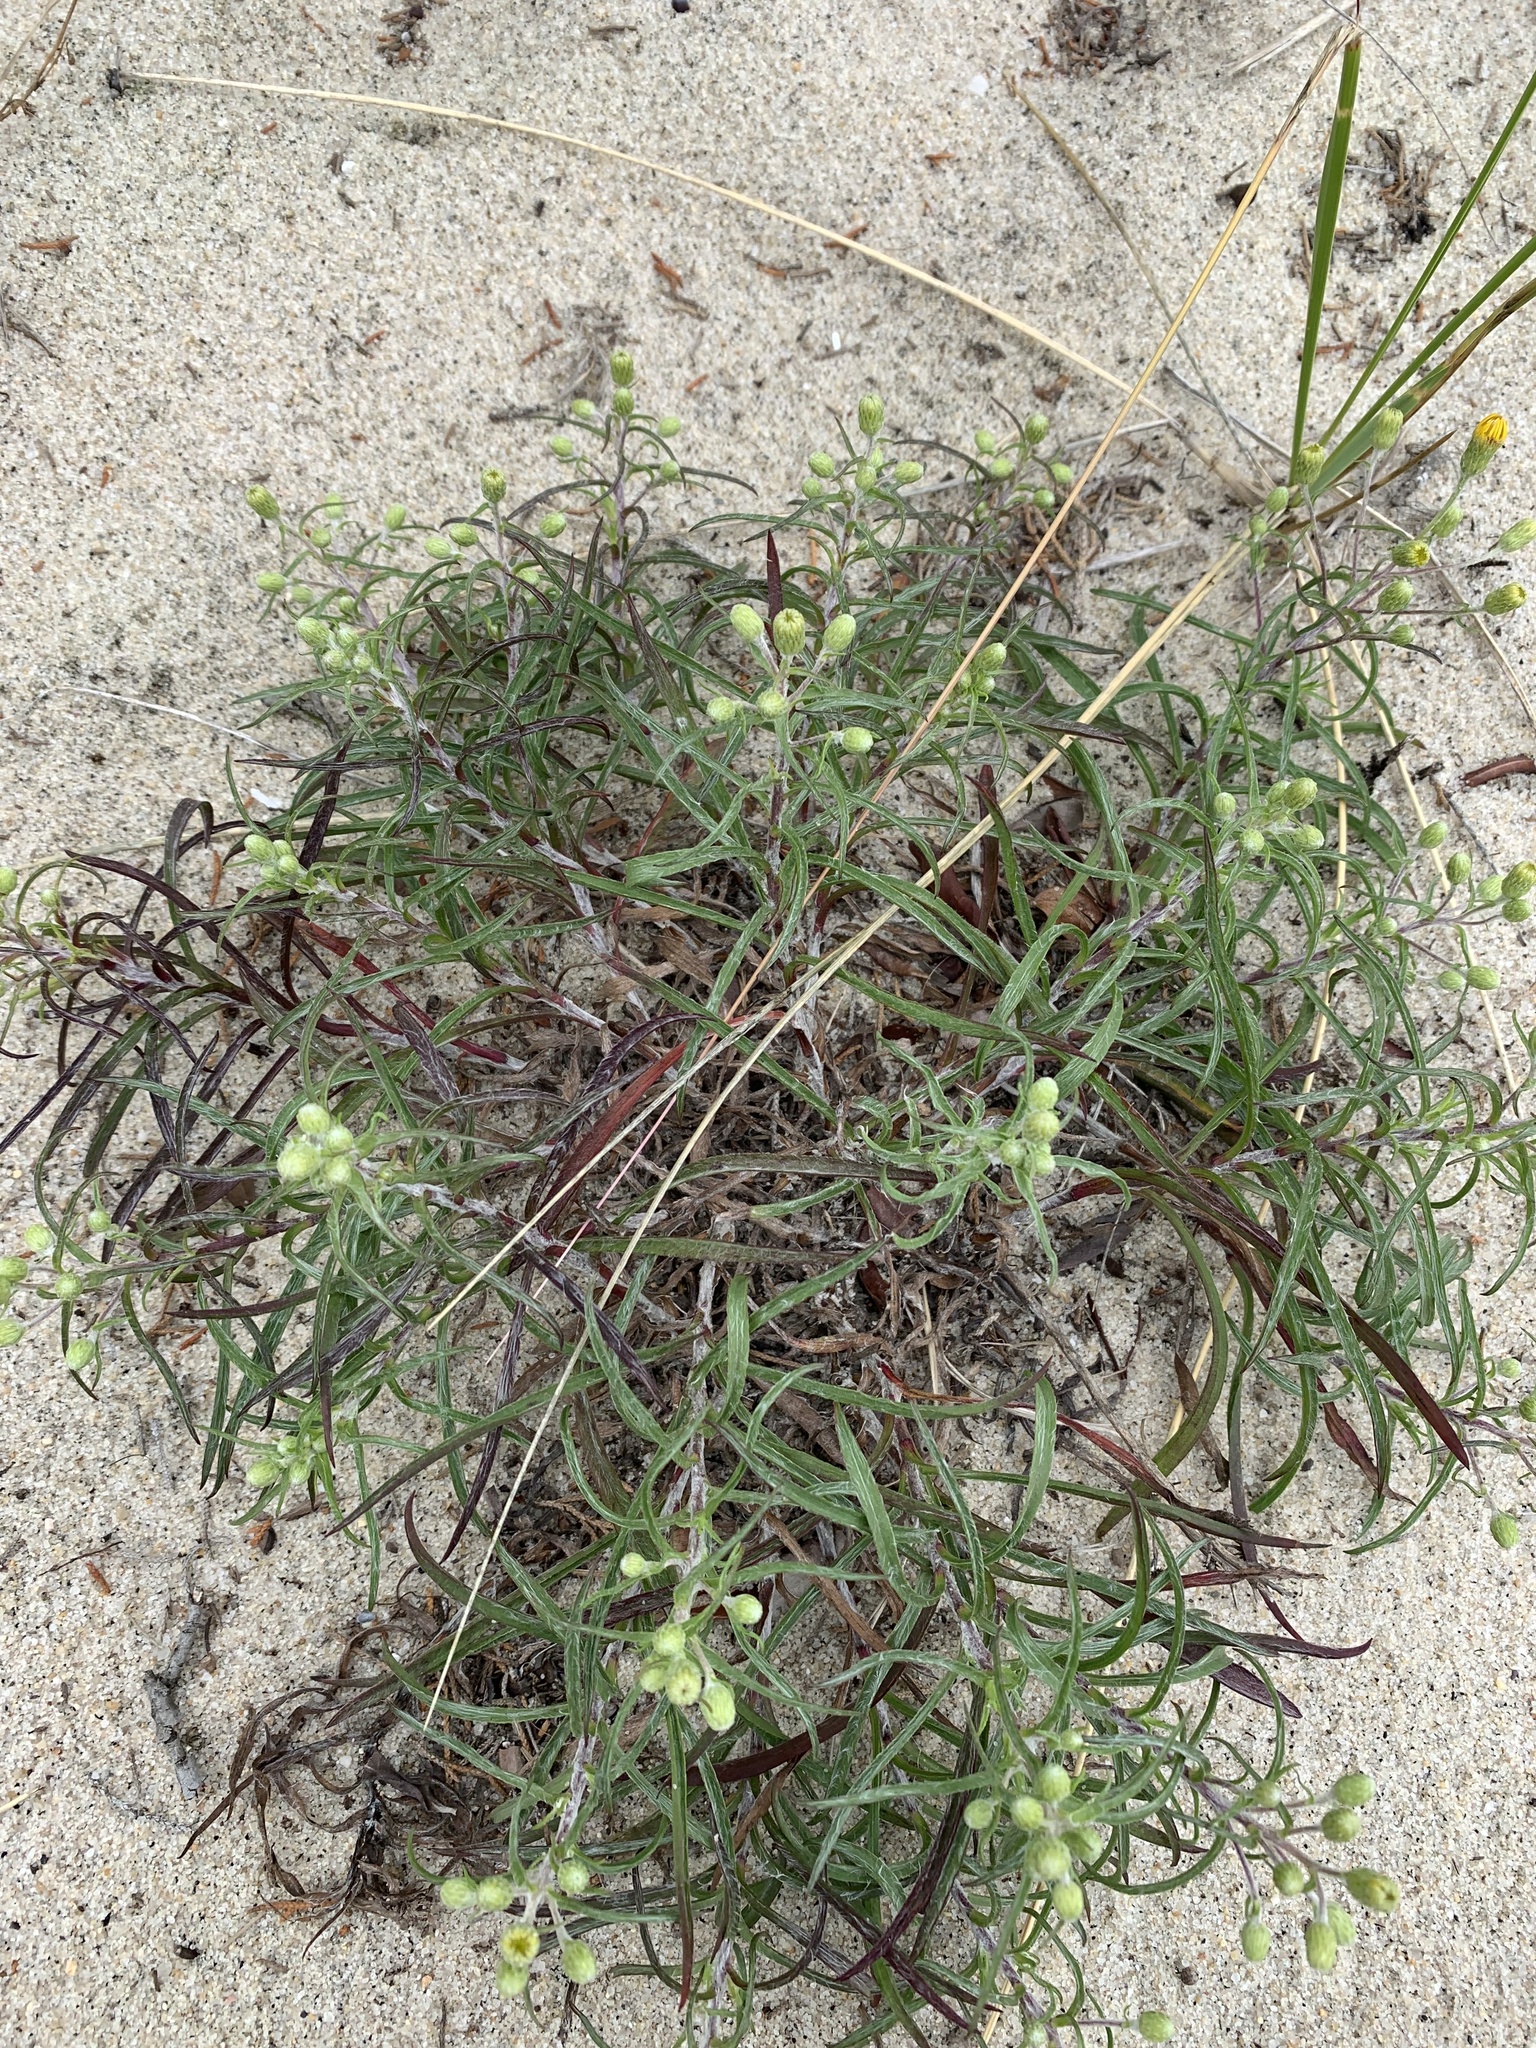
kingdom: Plantae
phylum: Tracheophyta
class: Magnoliopsida
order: Asterales
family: Asteraceae
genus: Pityopsis
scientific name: Pityopsis falcata
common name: Sickle-leaved goldenaster
